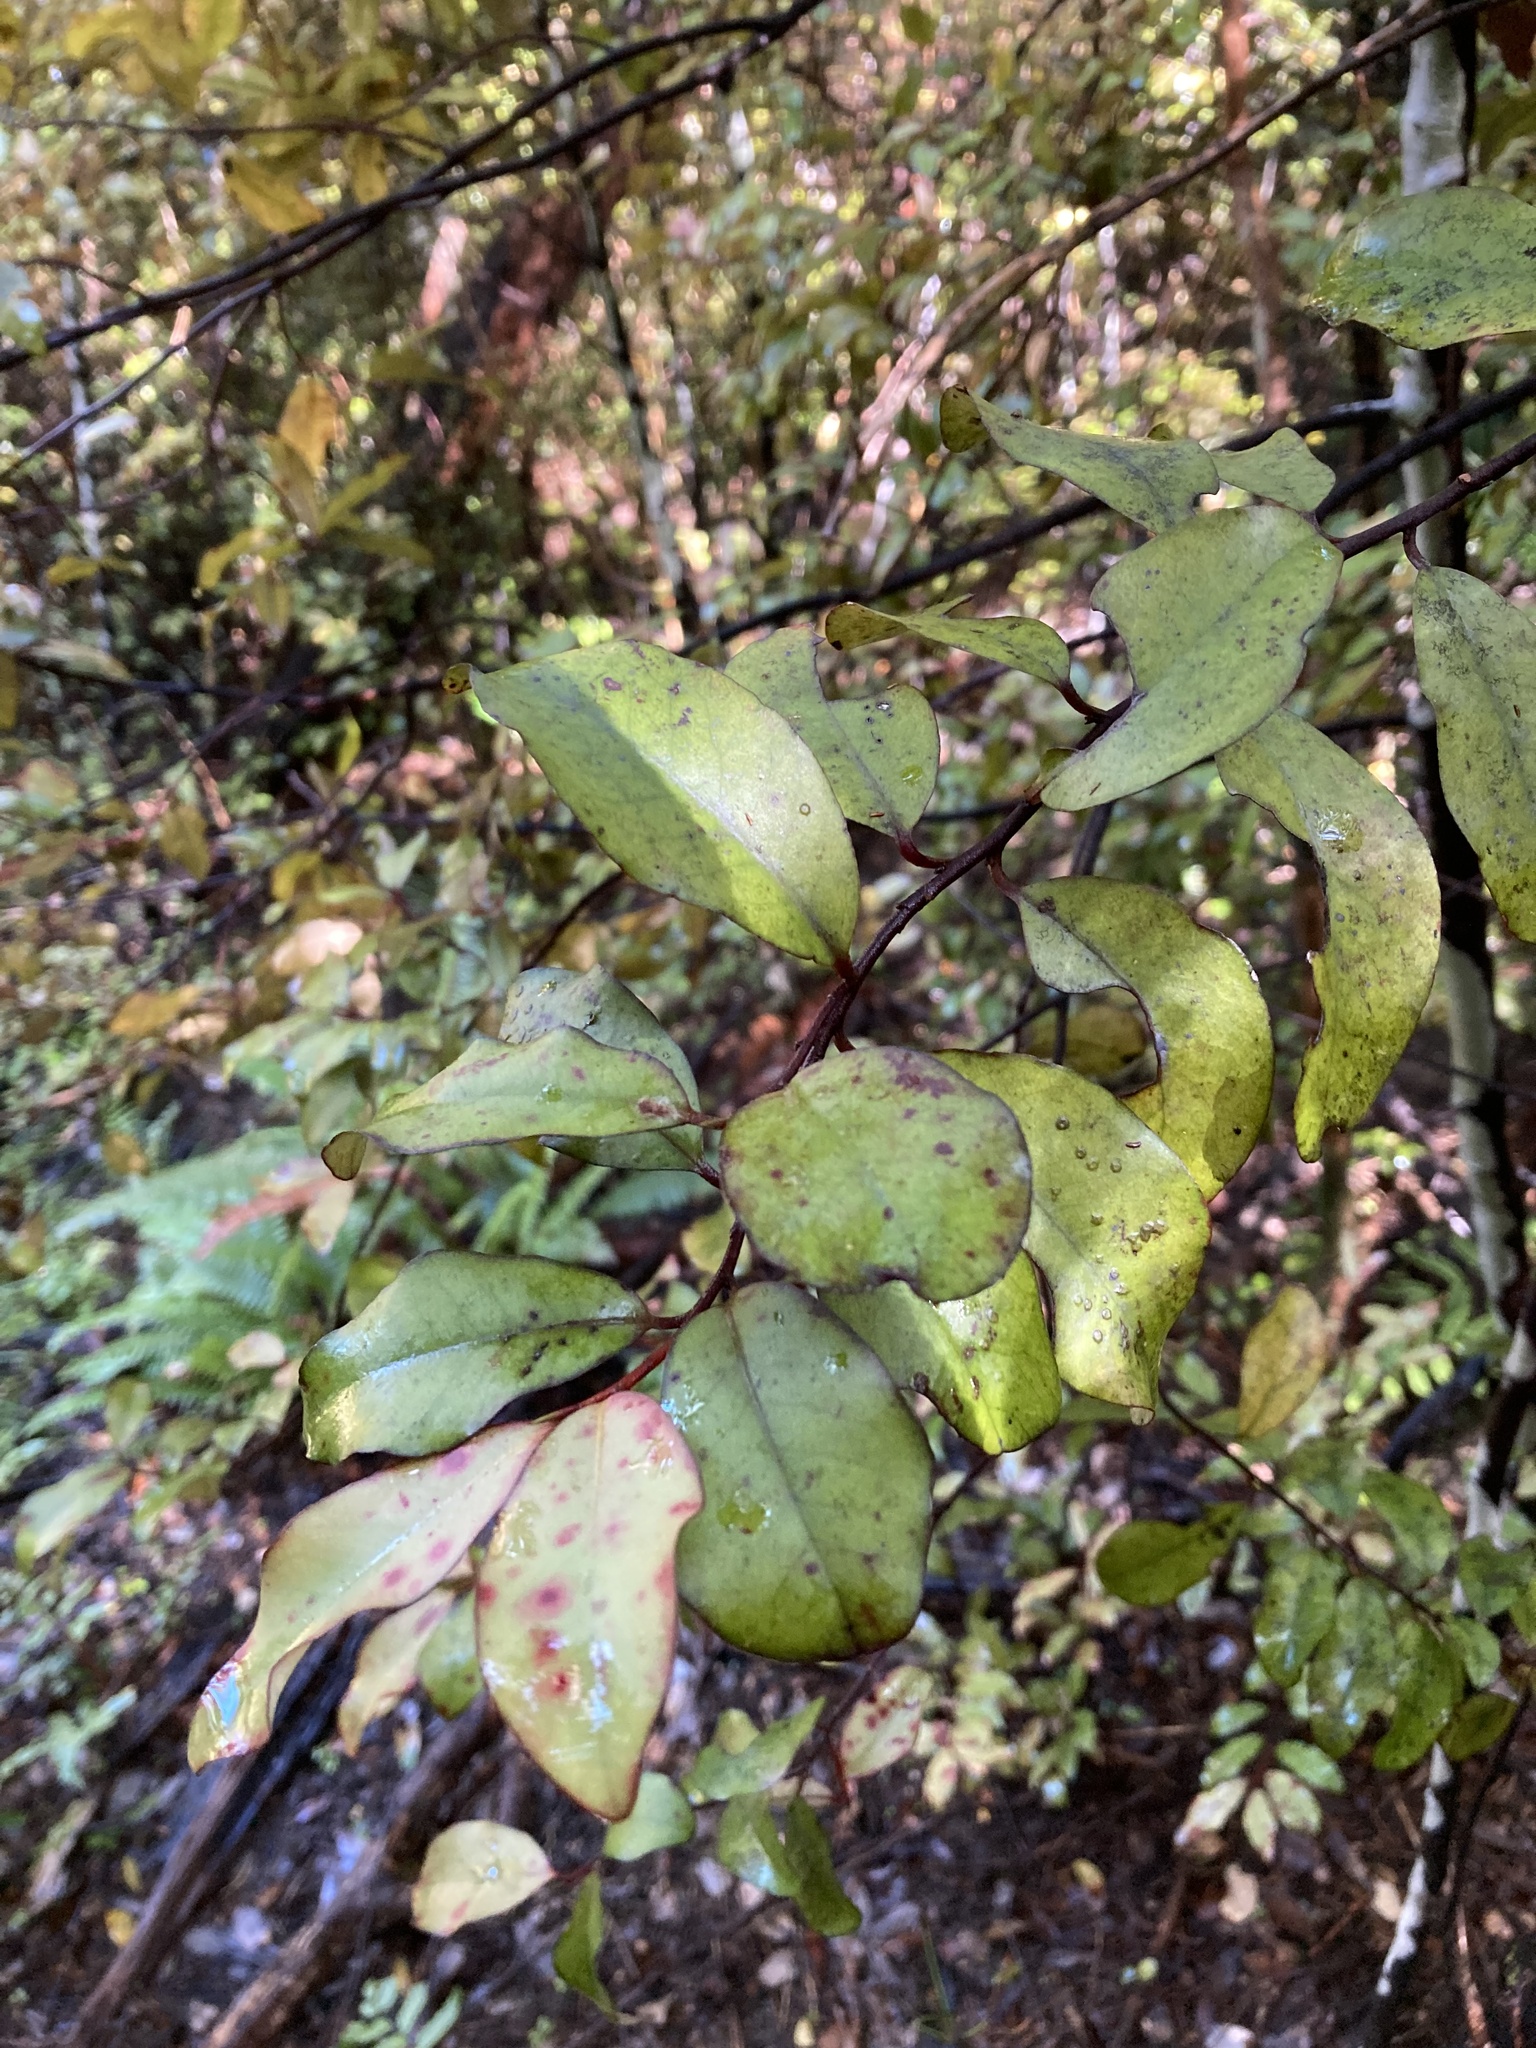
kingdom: Plantae
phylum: Tracheophyta
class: Magnoliopsida
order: Canellales
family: Winteraceae
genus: Pseudowintera
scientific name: Pseudowintera colorata
